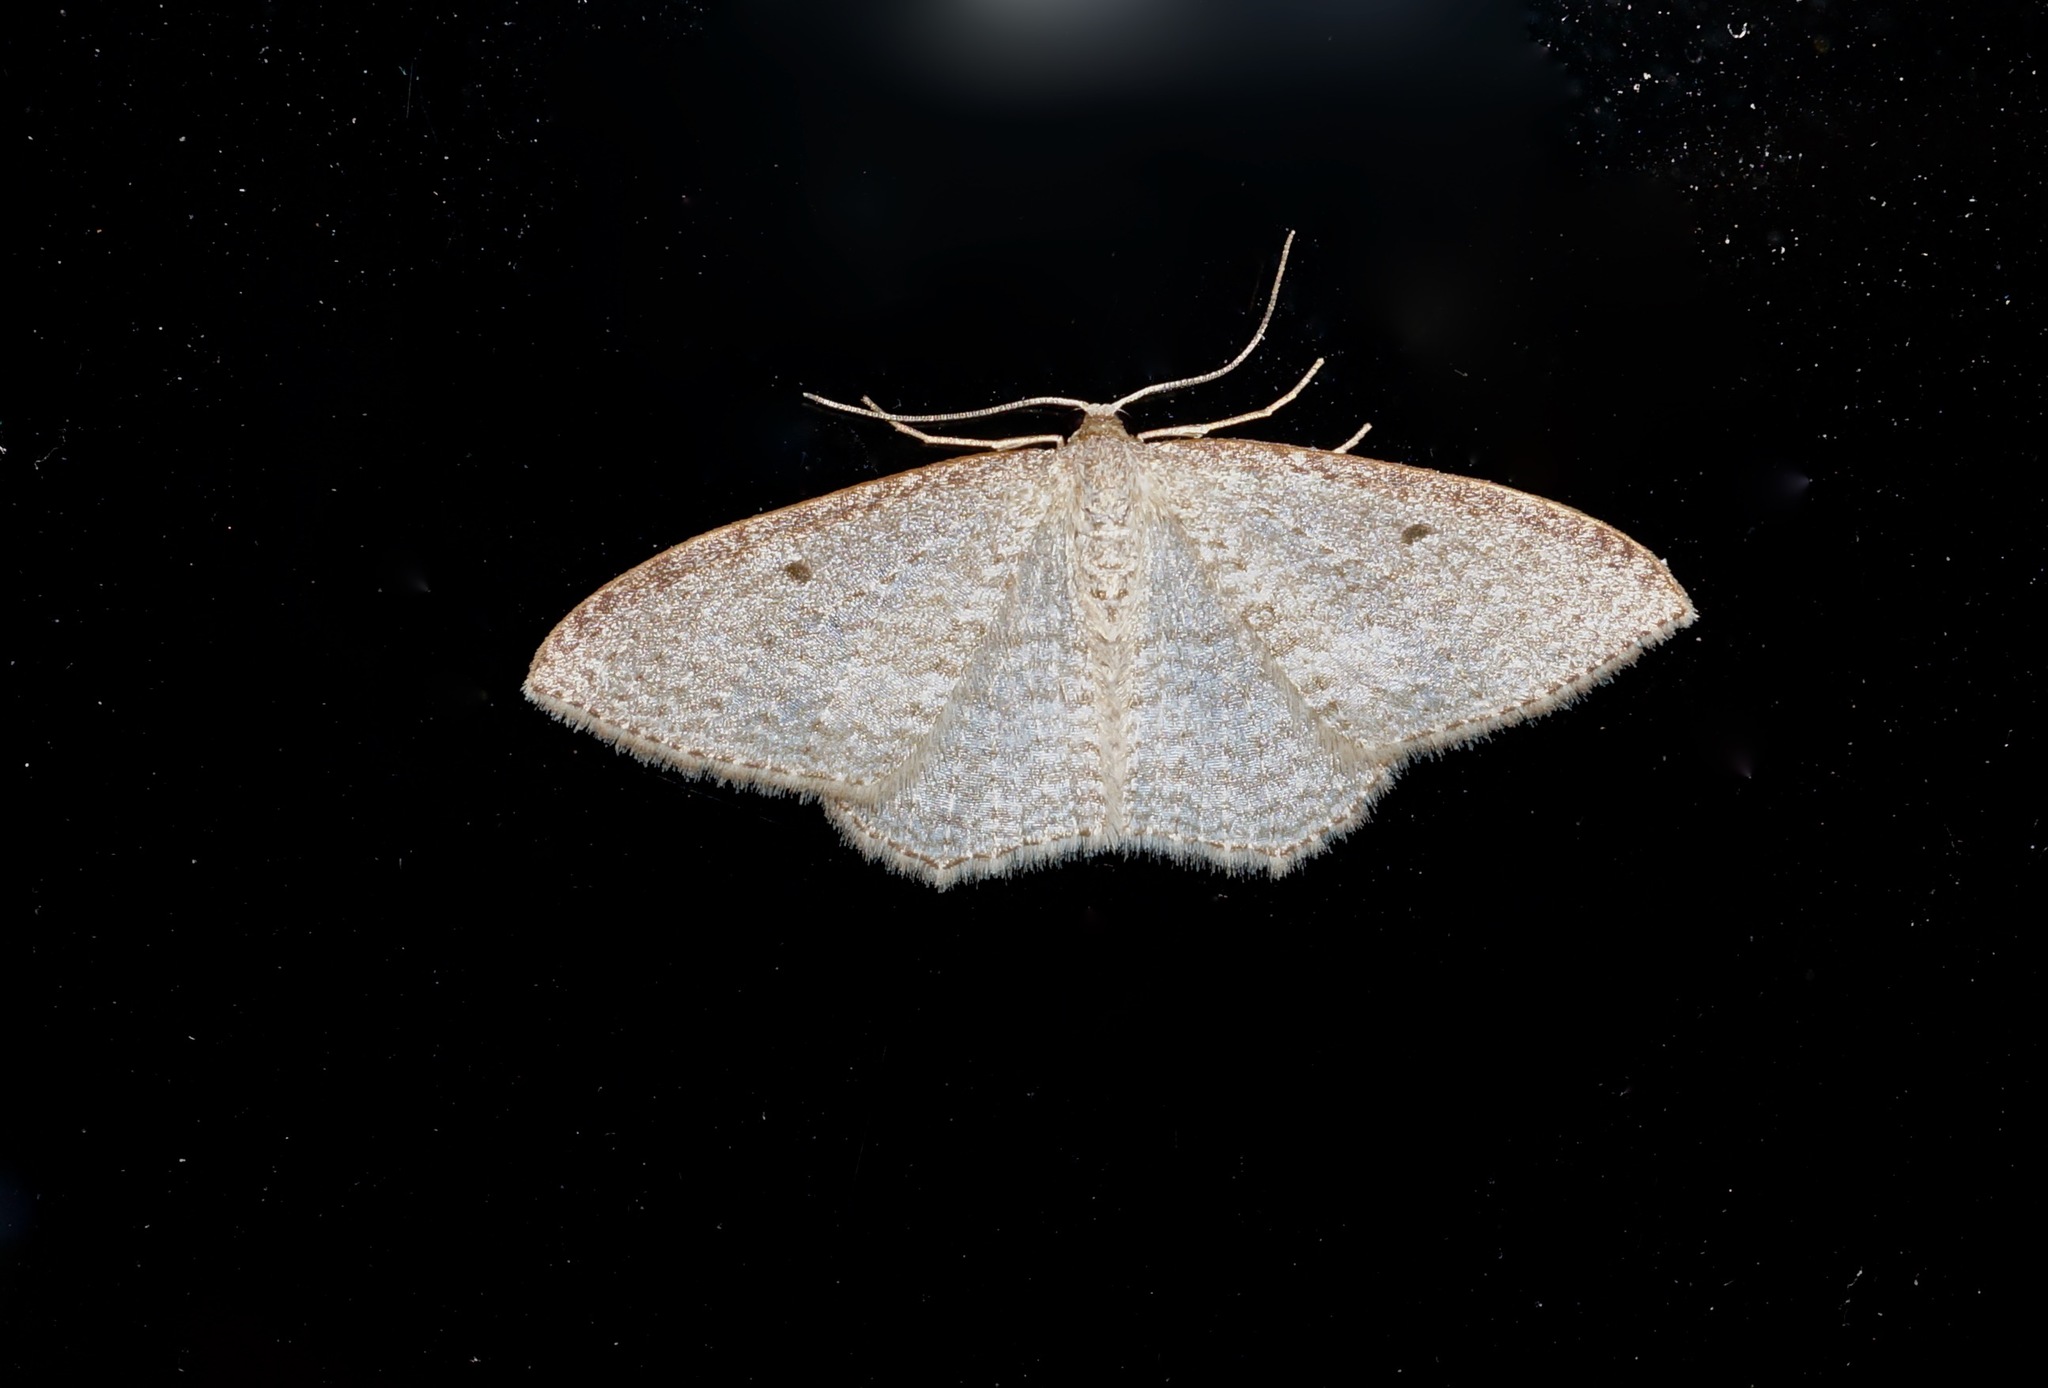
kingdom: Animalia
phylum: Arthropoda
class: Insecta
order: Lepidoptera
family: Geometridae
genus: Poecilasthena
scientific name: Poecilasthena pulchraria
